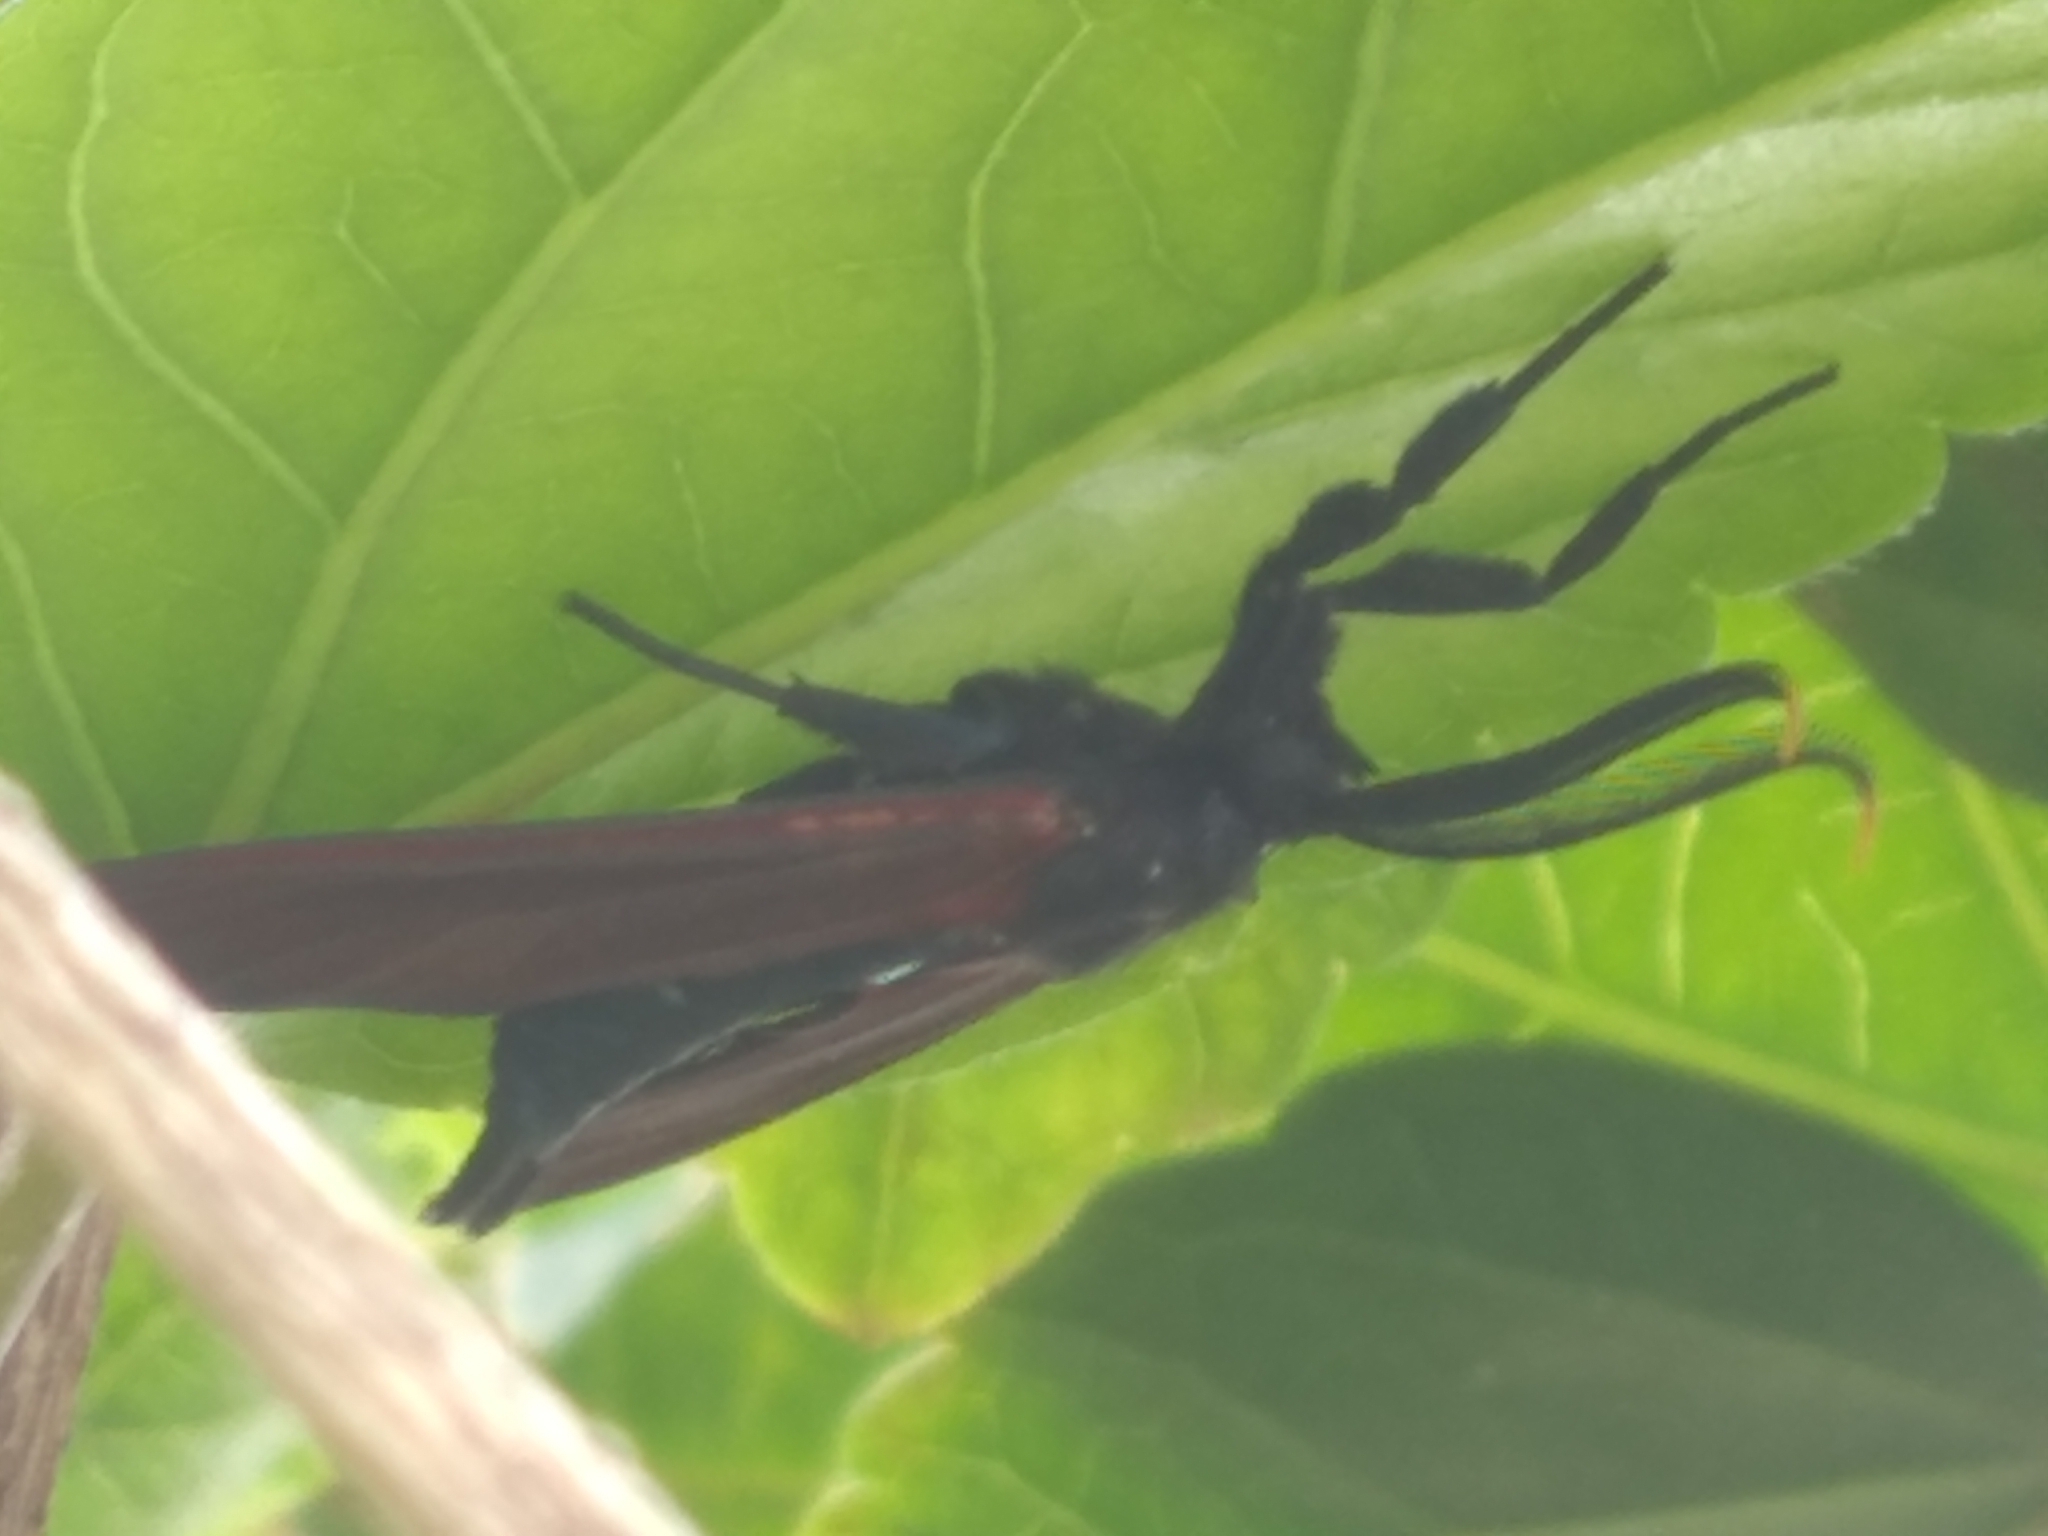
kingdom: Animalia
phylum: Arthropoda
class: Insecta
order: Lepidoptera
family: Erebidae
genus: Empyreuma
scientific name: Empyreuma pugione
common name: Spotted oleander caterpillar moth
